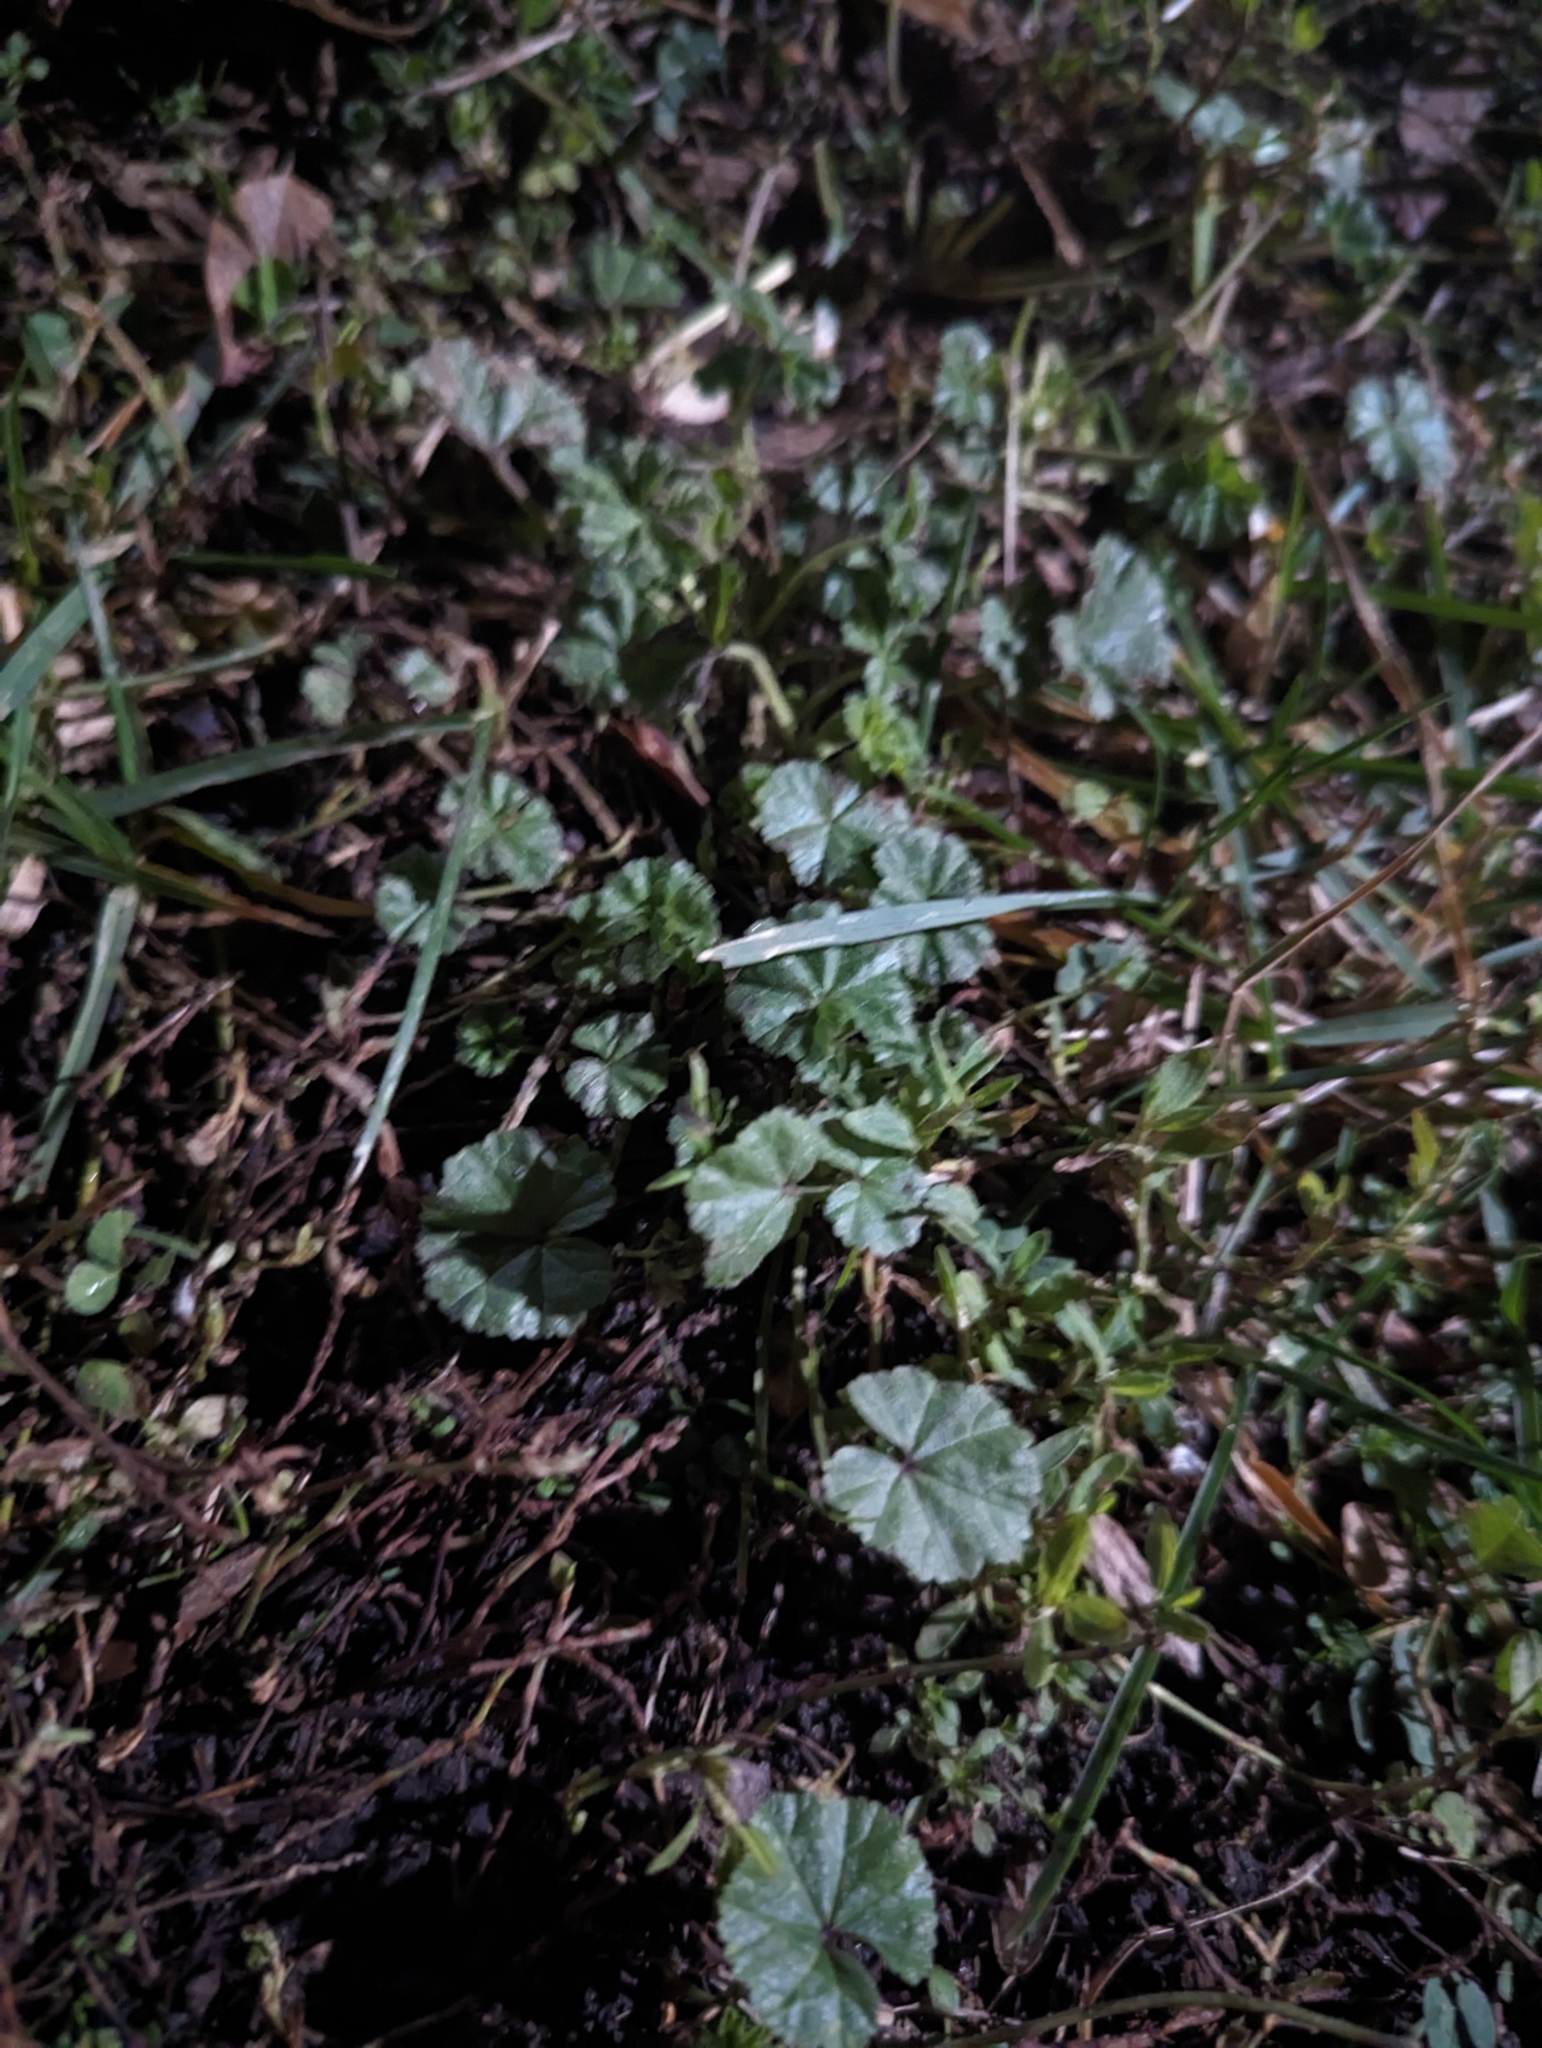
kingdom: Plantae
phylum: Tracheophyta
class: Magnoliopsida
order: Malvales
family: Malvaceae
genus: Malva
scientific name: Malva neglecta
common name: Common mallow
